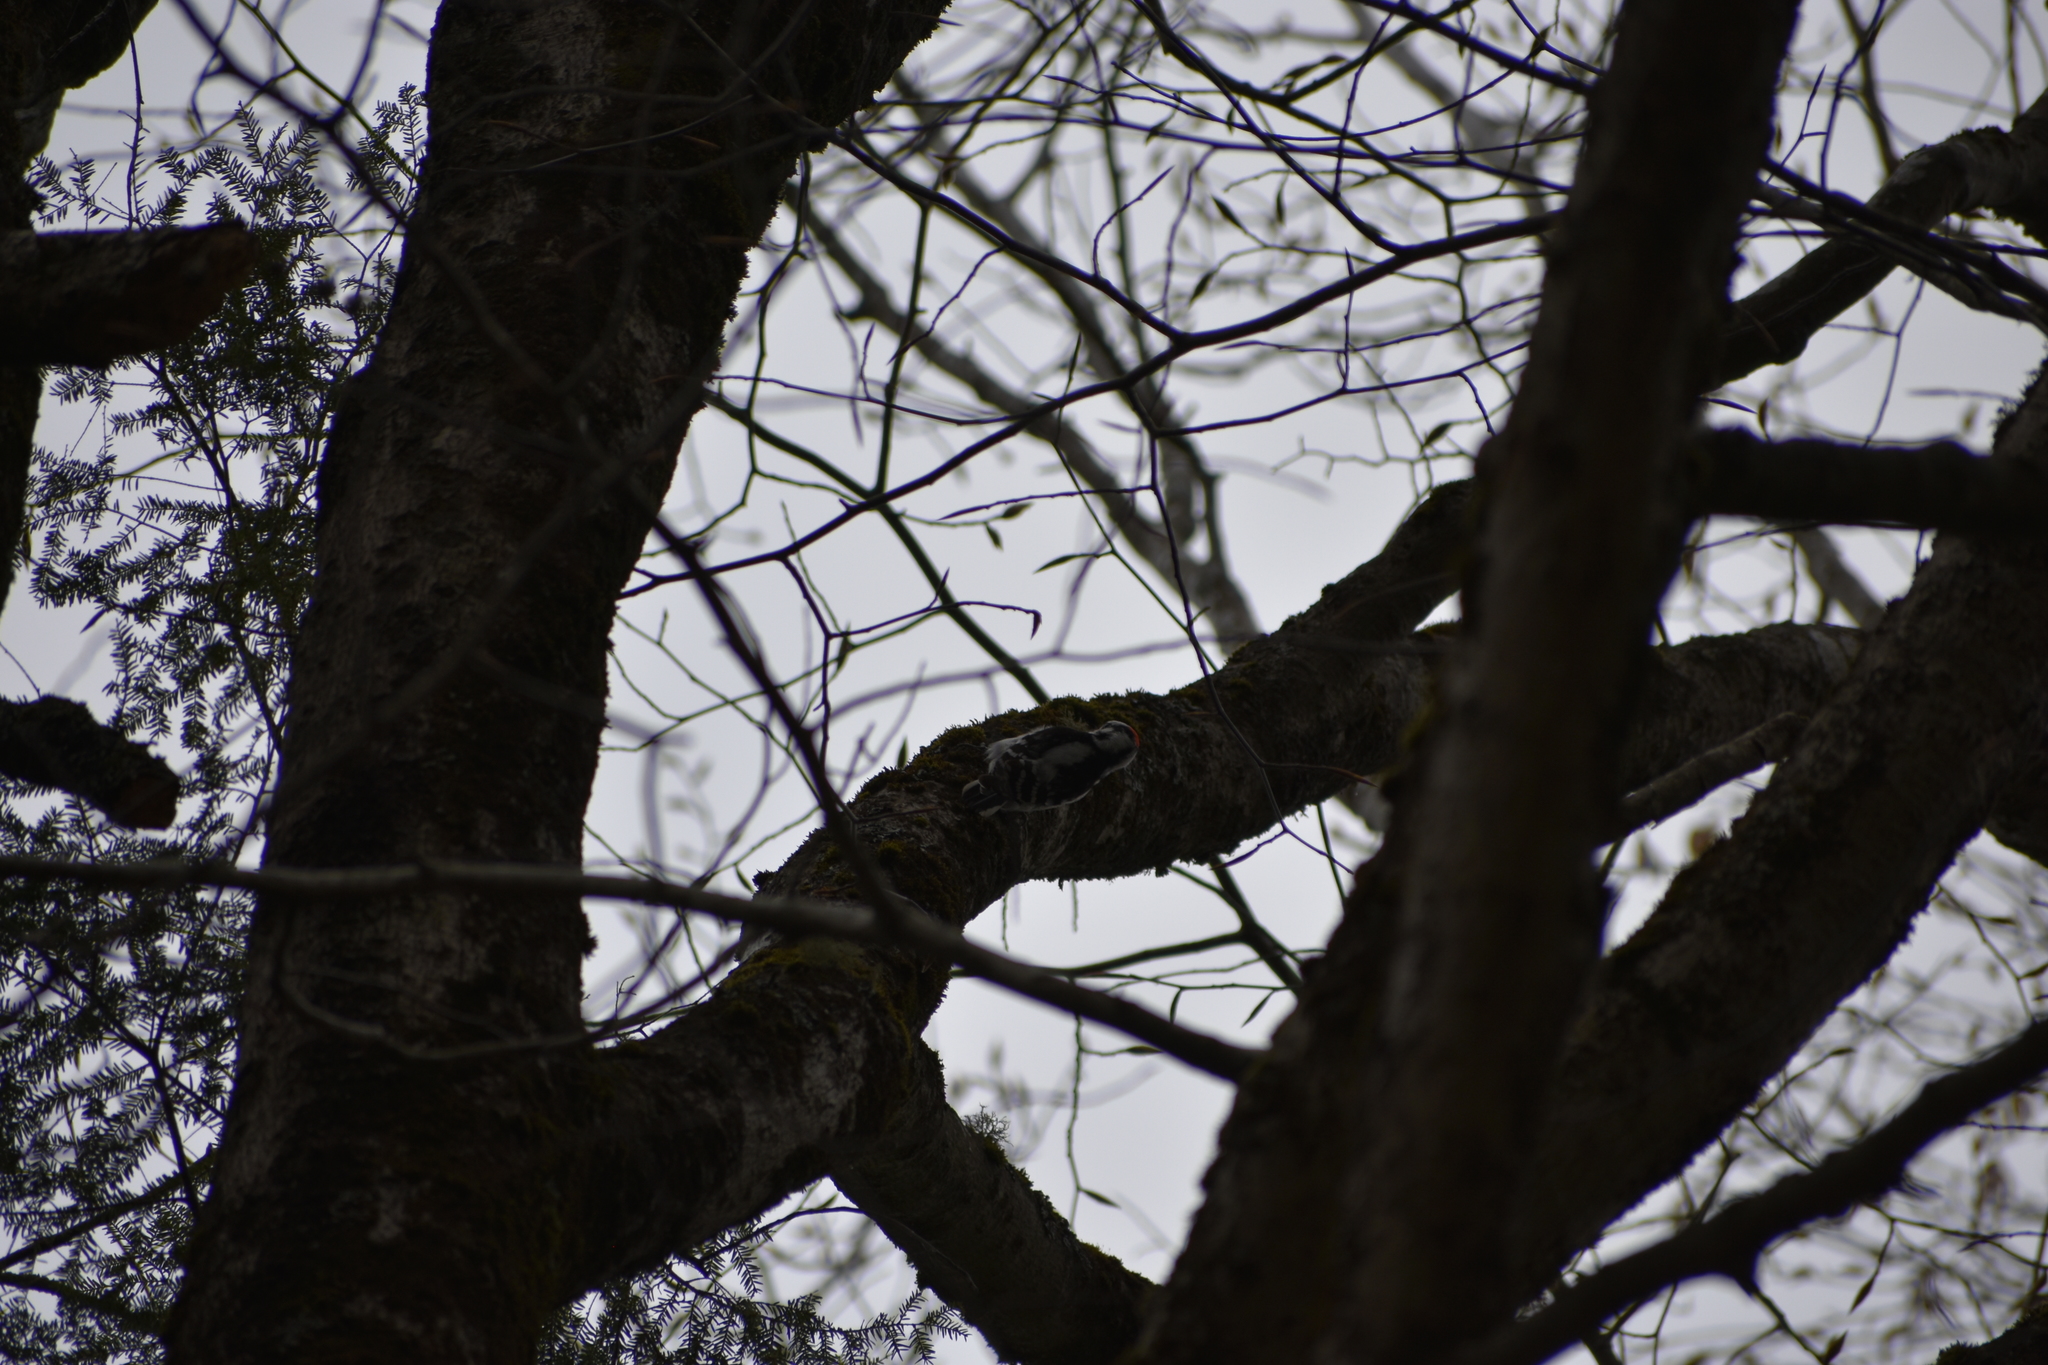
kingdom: Animalia
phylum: Chordata
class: Aves
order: Piciformes
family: Picidae
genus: Dryobates
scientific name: Dryobates pubescens
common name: Downy woodpecker
